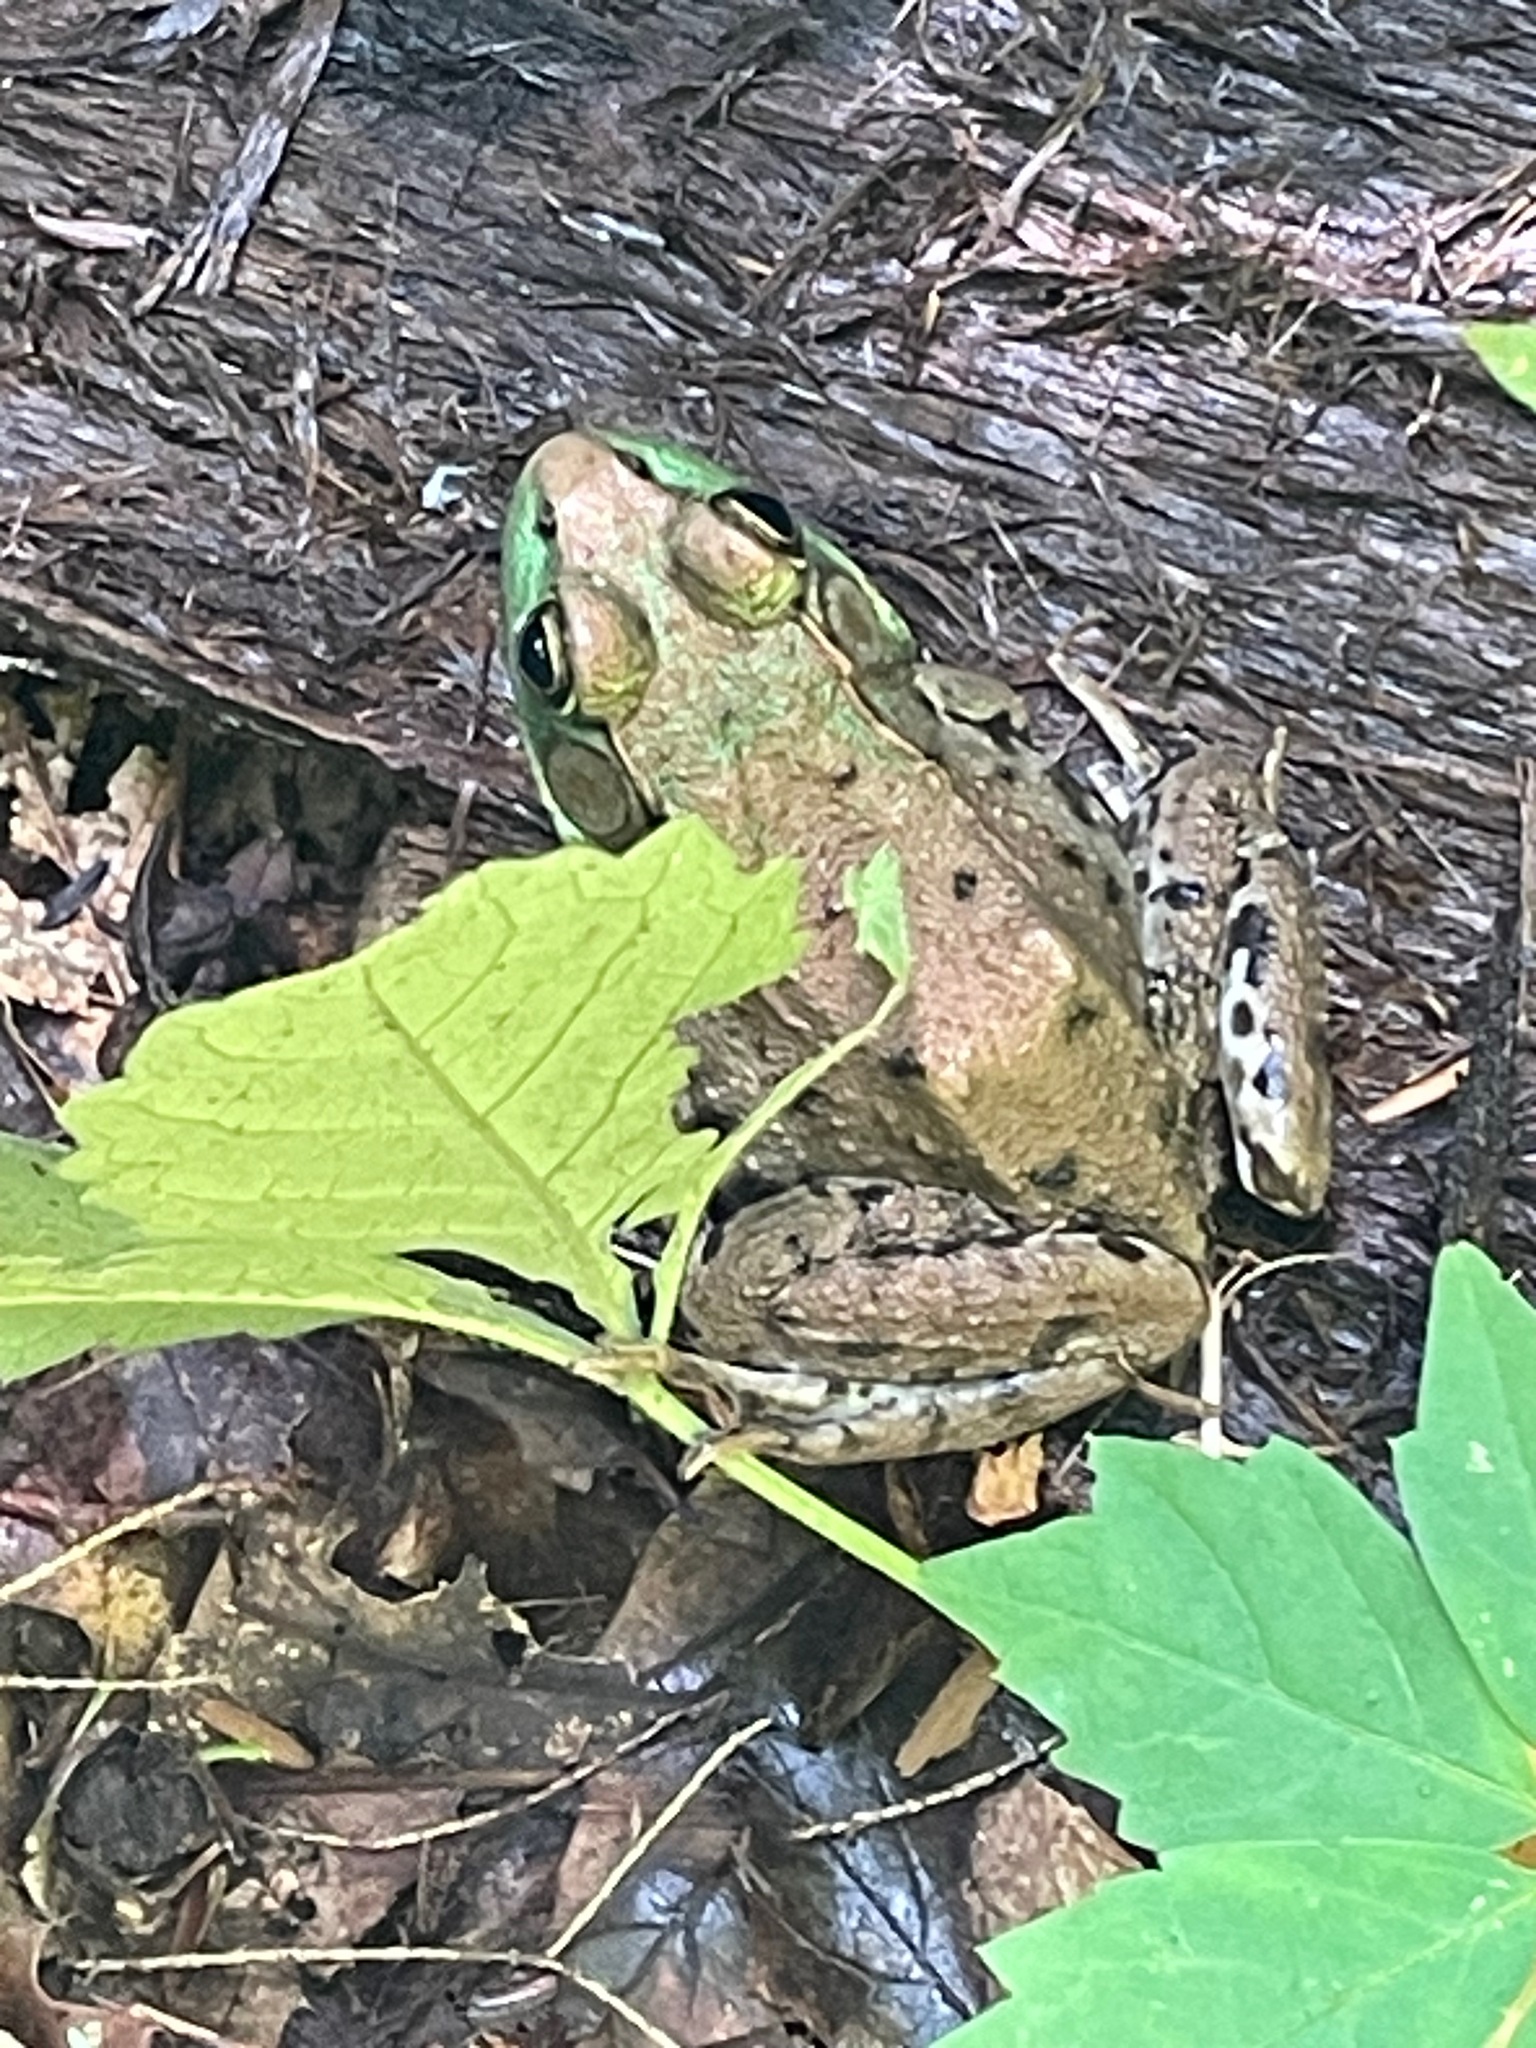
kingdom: Animalia
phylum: Chordata
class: Amphibia
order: Anura
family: Ranidae
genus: Lithobates
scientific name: Lithobates clamitans
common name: Green frog
